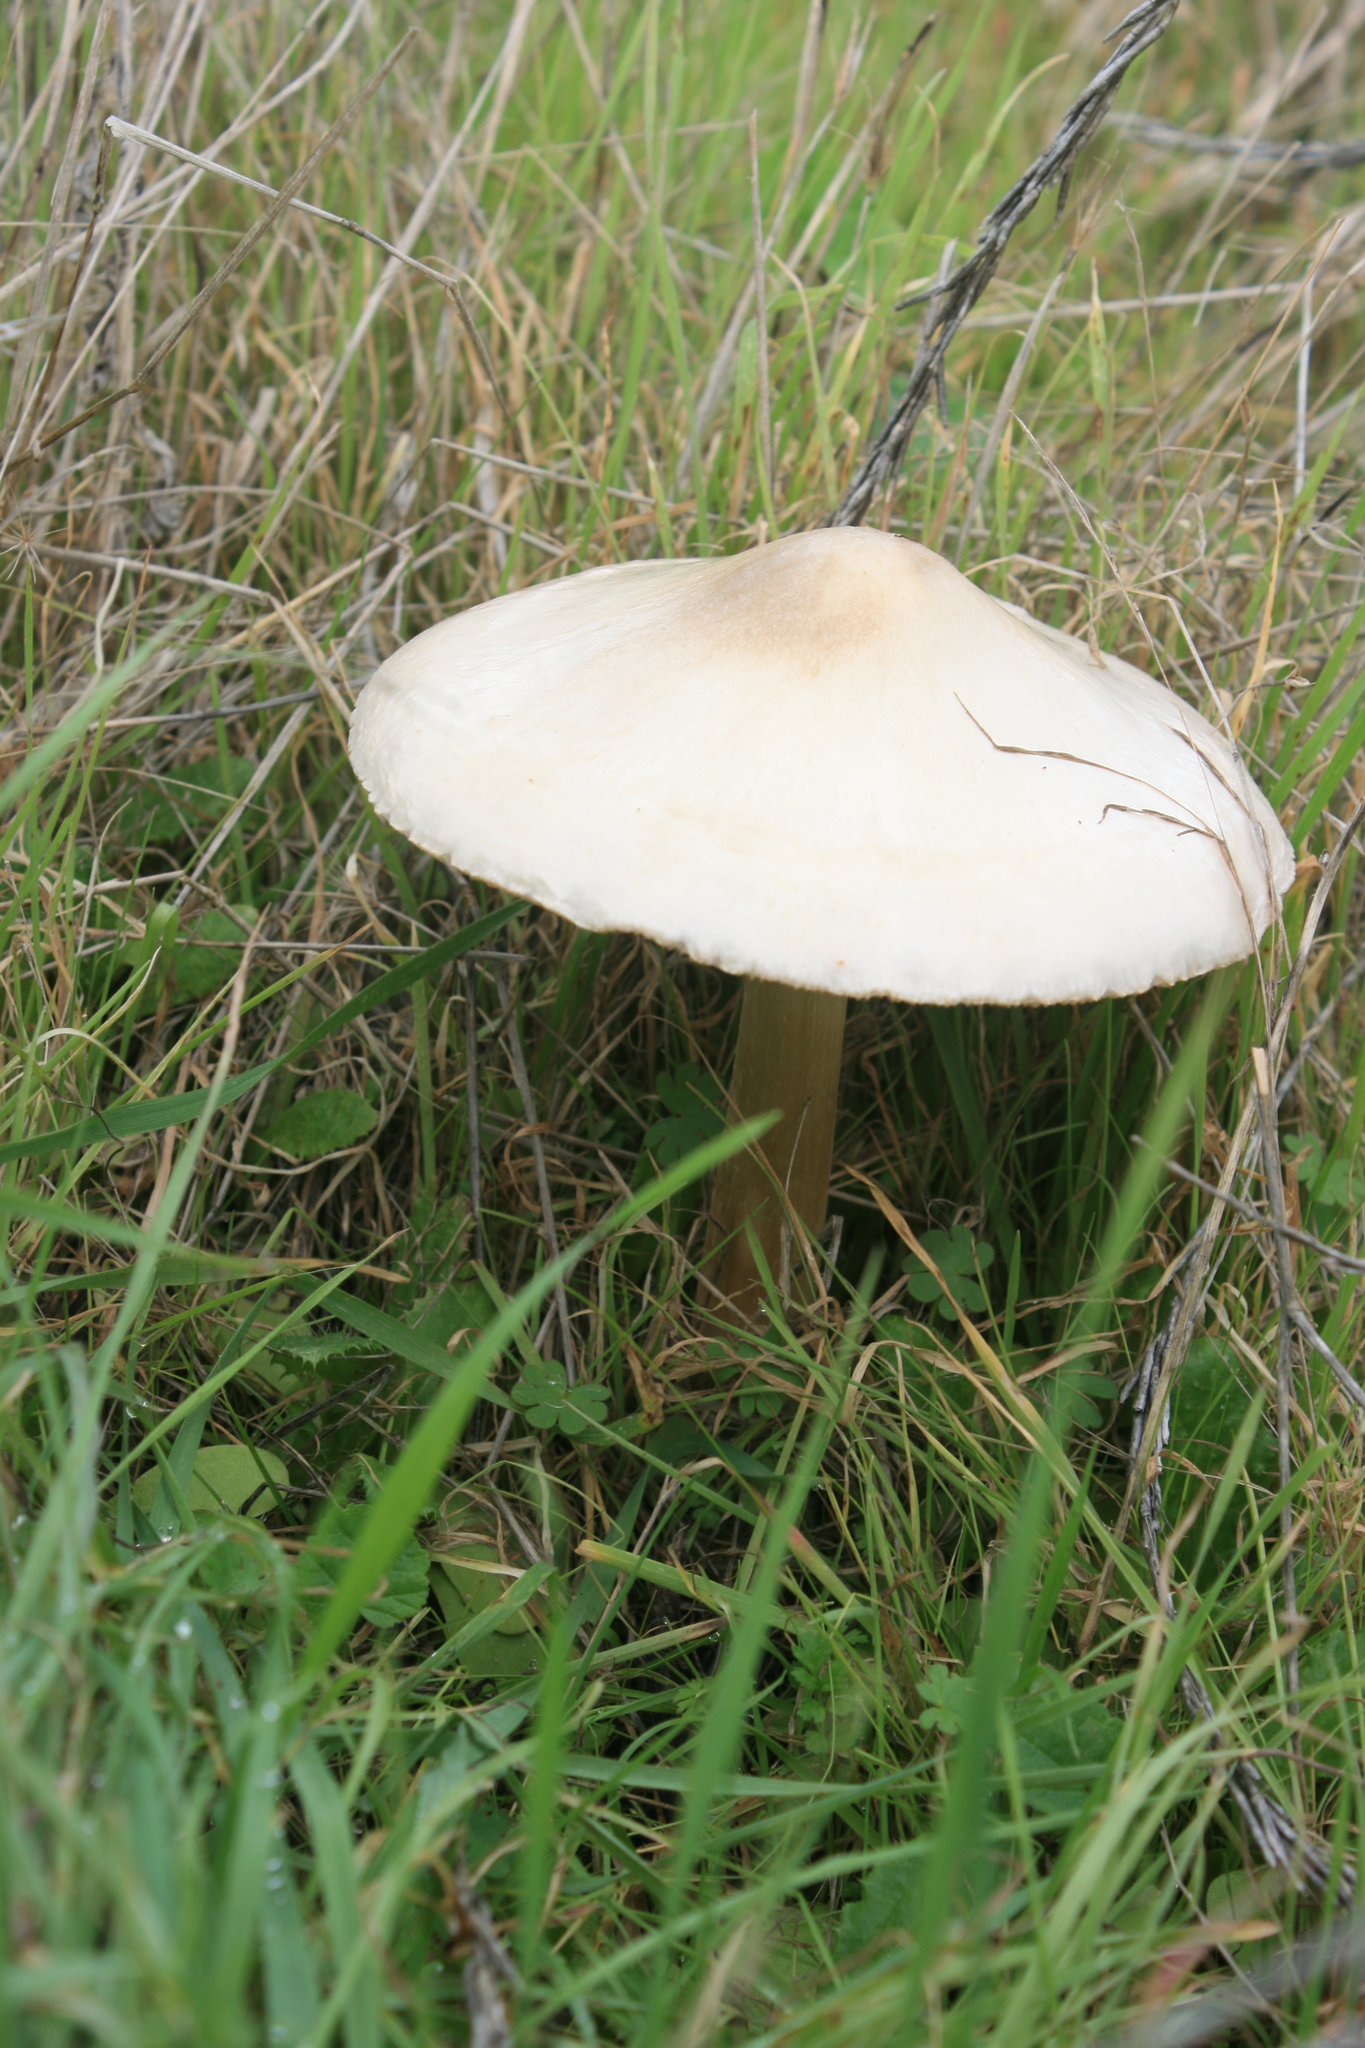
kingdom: Fungi
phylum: Basidiomycota
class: Agaricomycetes
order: Agaricales
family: Pluteaceae
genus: Volvopluteus
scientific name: Volvopluteus gloiocephalus
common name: Stubble rosegill
